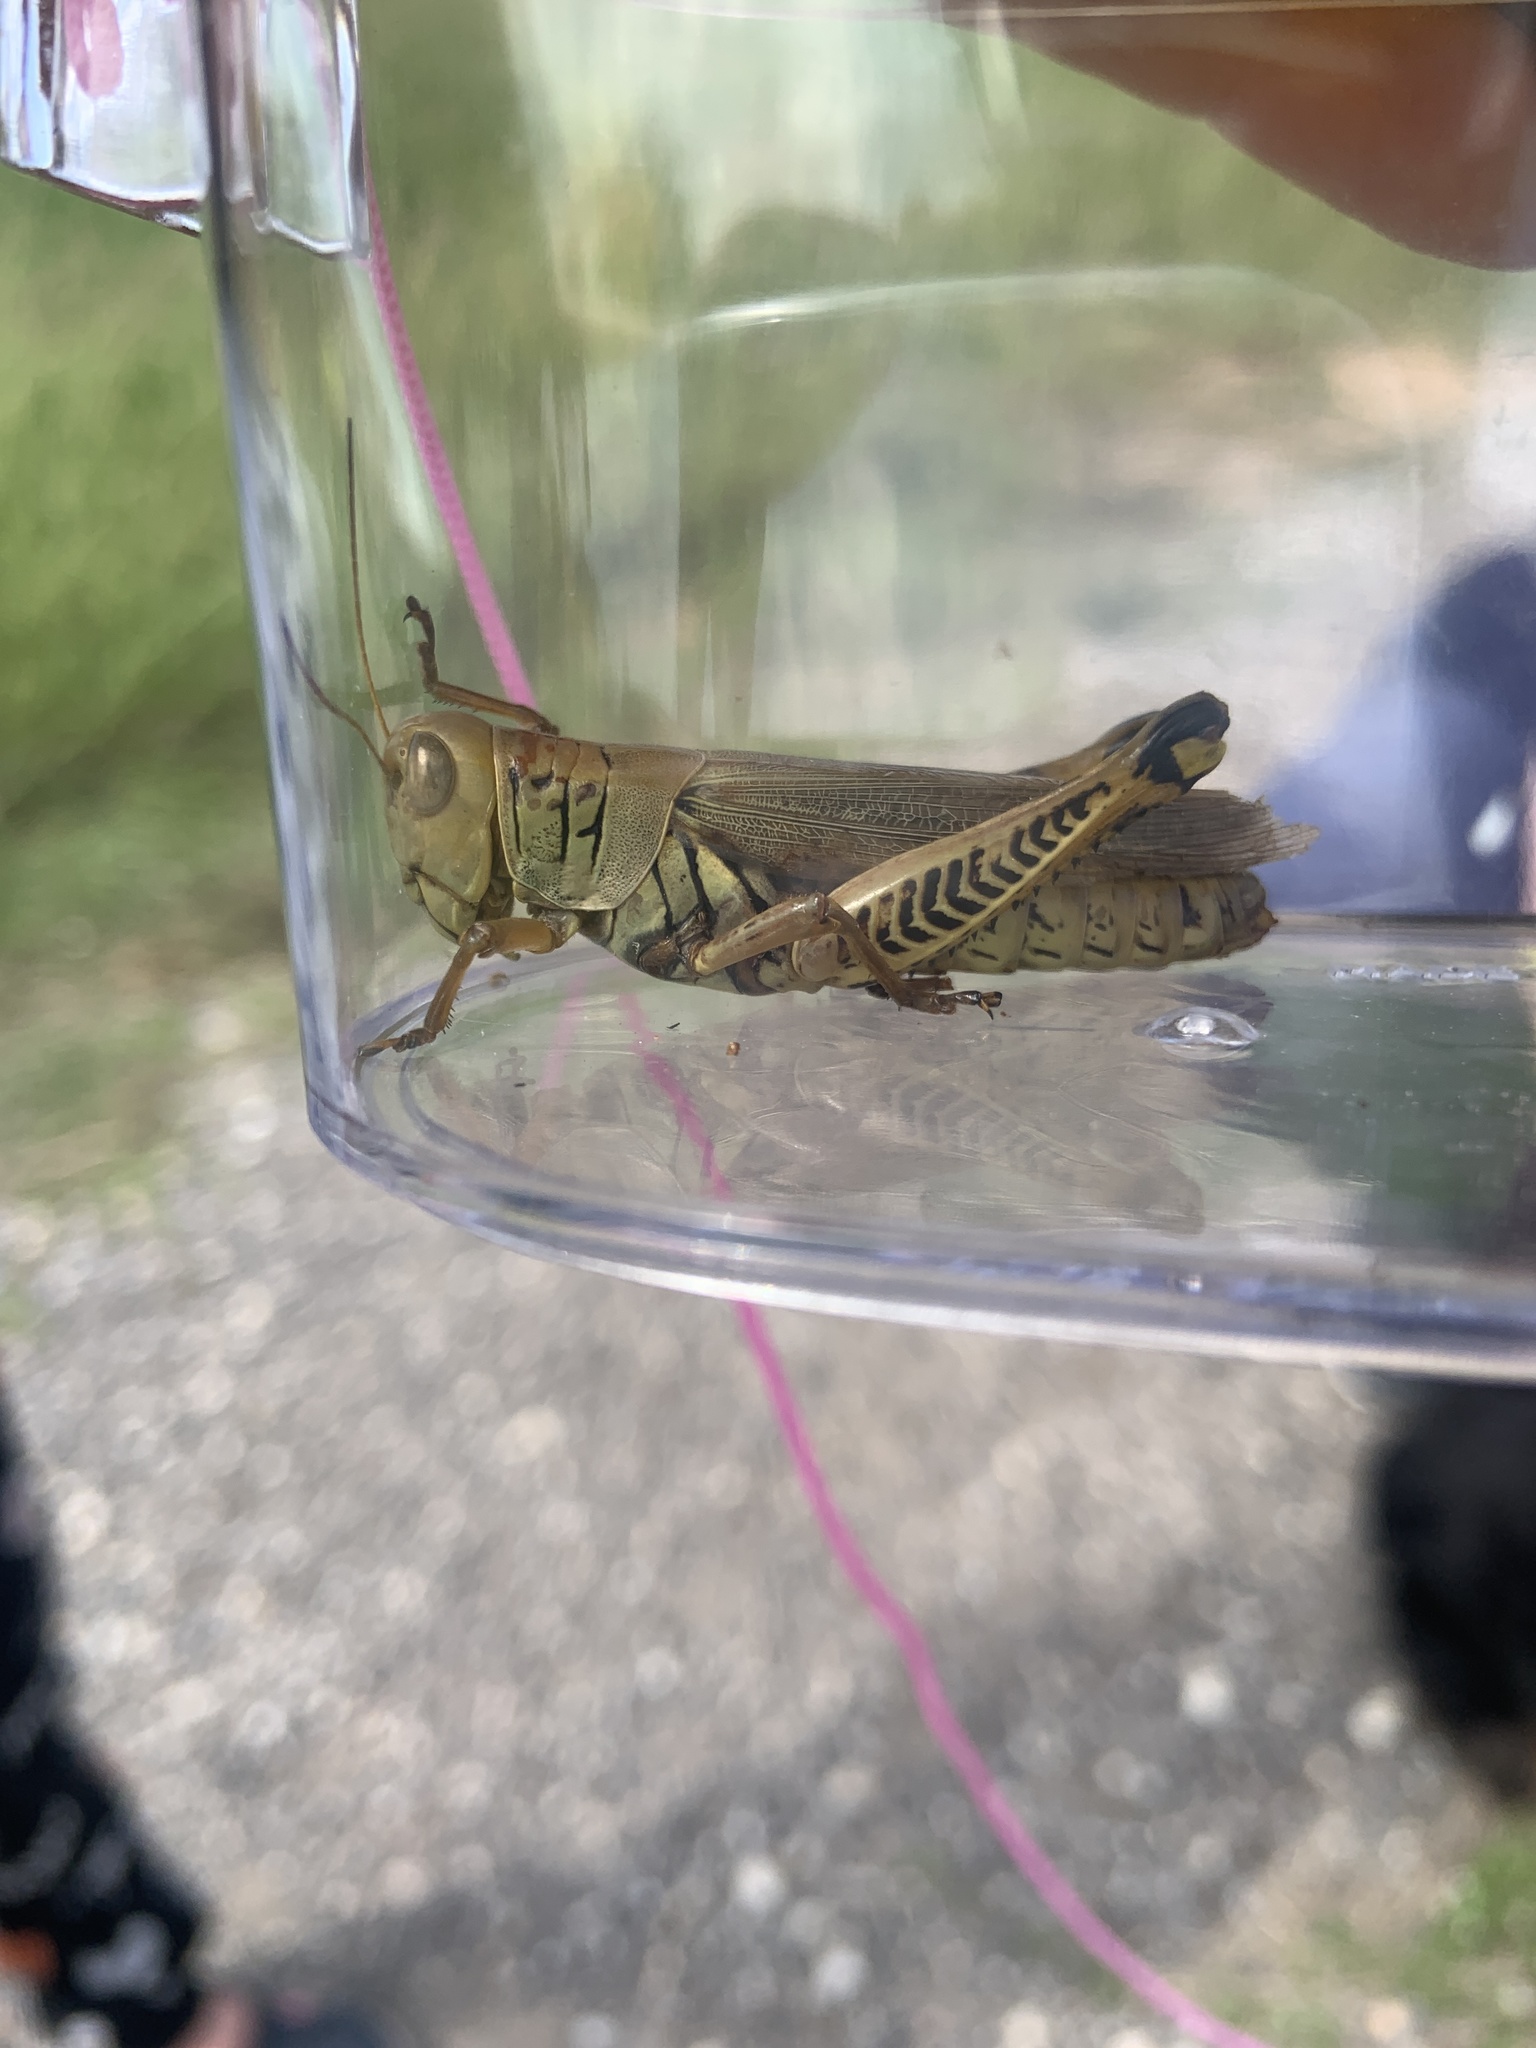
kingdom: Animalia
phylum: Arthropoda
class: Insecta
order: Orthoptera
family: Acrididae
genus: Melanoplus
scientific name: Melanoplus differentialis
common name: Differential grasshopper
